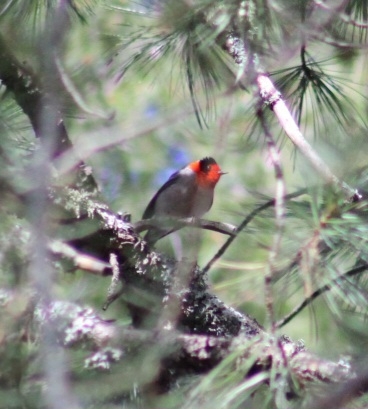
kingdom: Animalia
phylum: Chordata
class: Aves
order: Passeriformes
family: Parulidae
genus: Cardellina
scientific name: Cardellina rubrifrons
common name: Red-faced warbler
